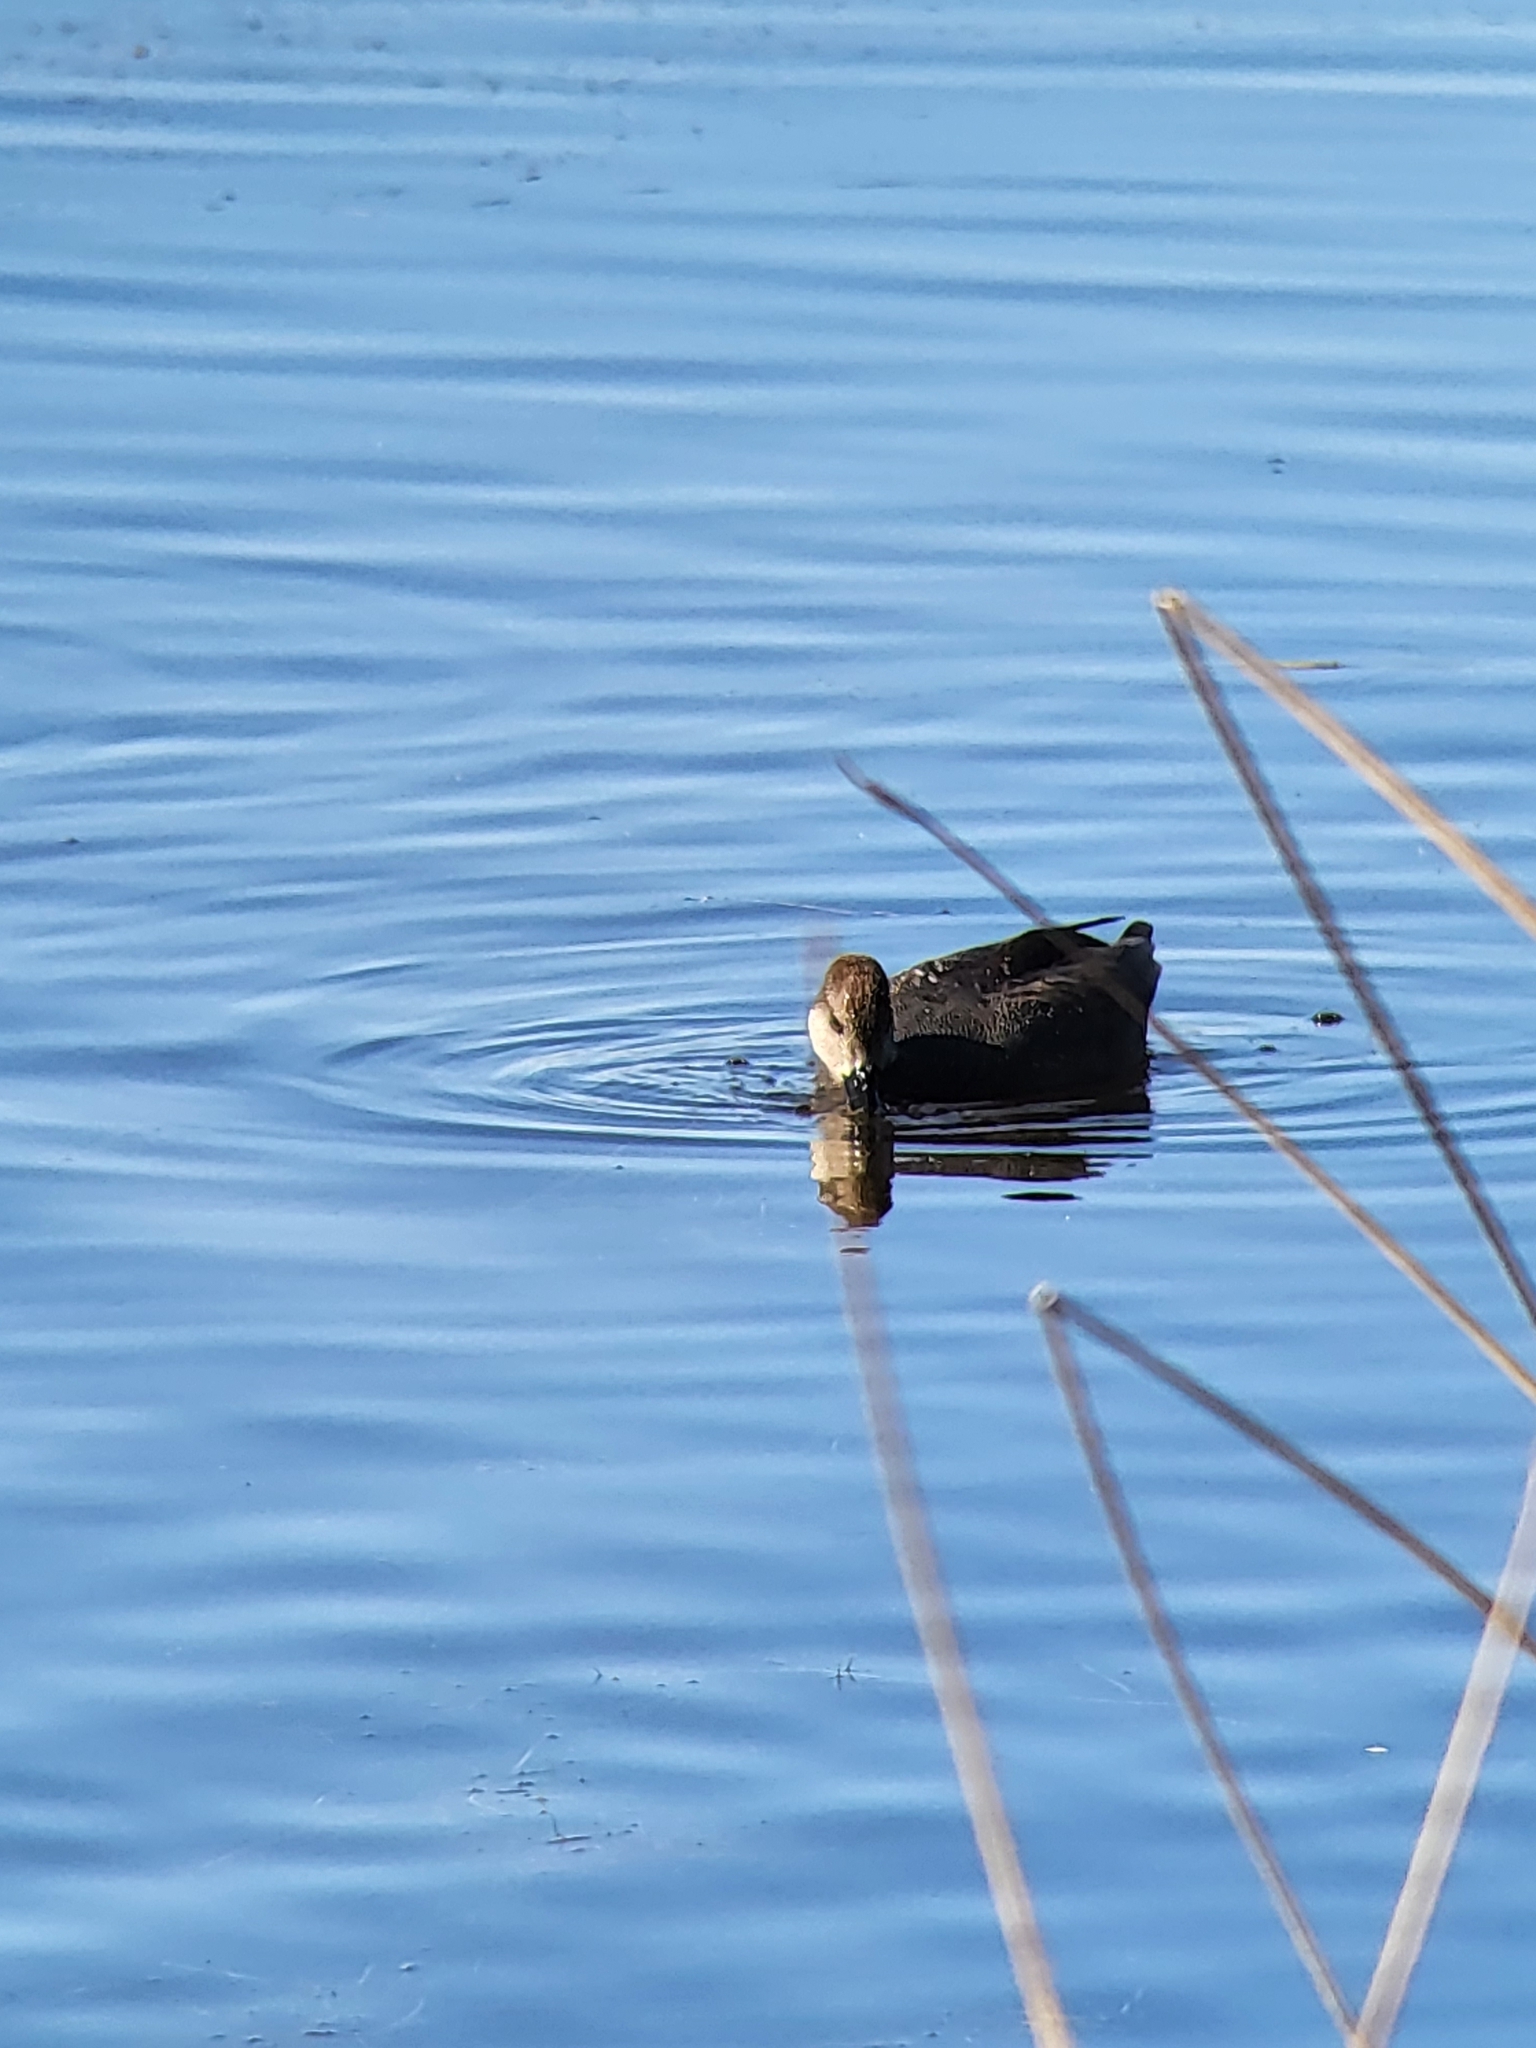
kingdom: Animalia
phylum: Chordata
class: Aves
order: Anseriformes
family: Anatidae
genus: Mareca
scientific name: Mareca strepera
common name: Gadwall
